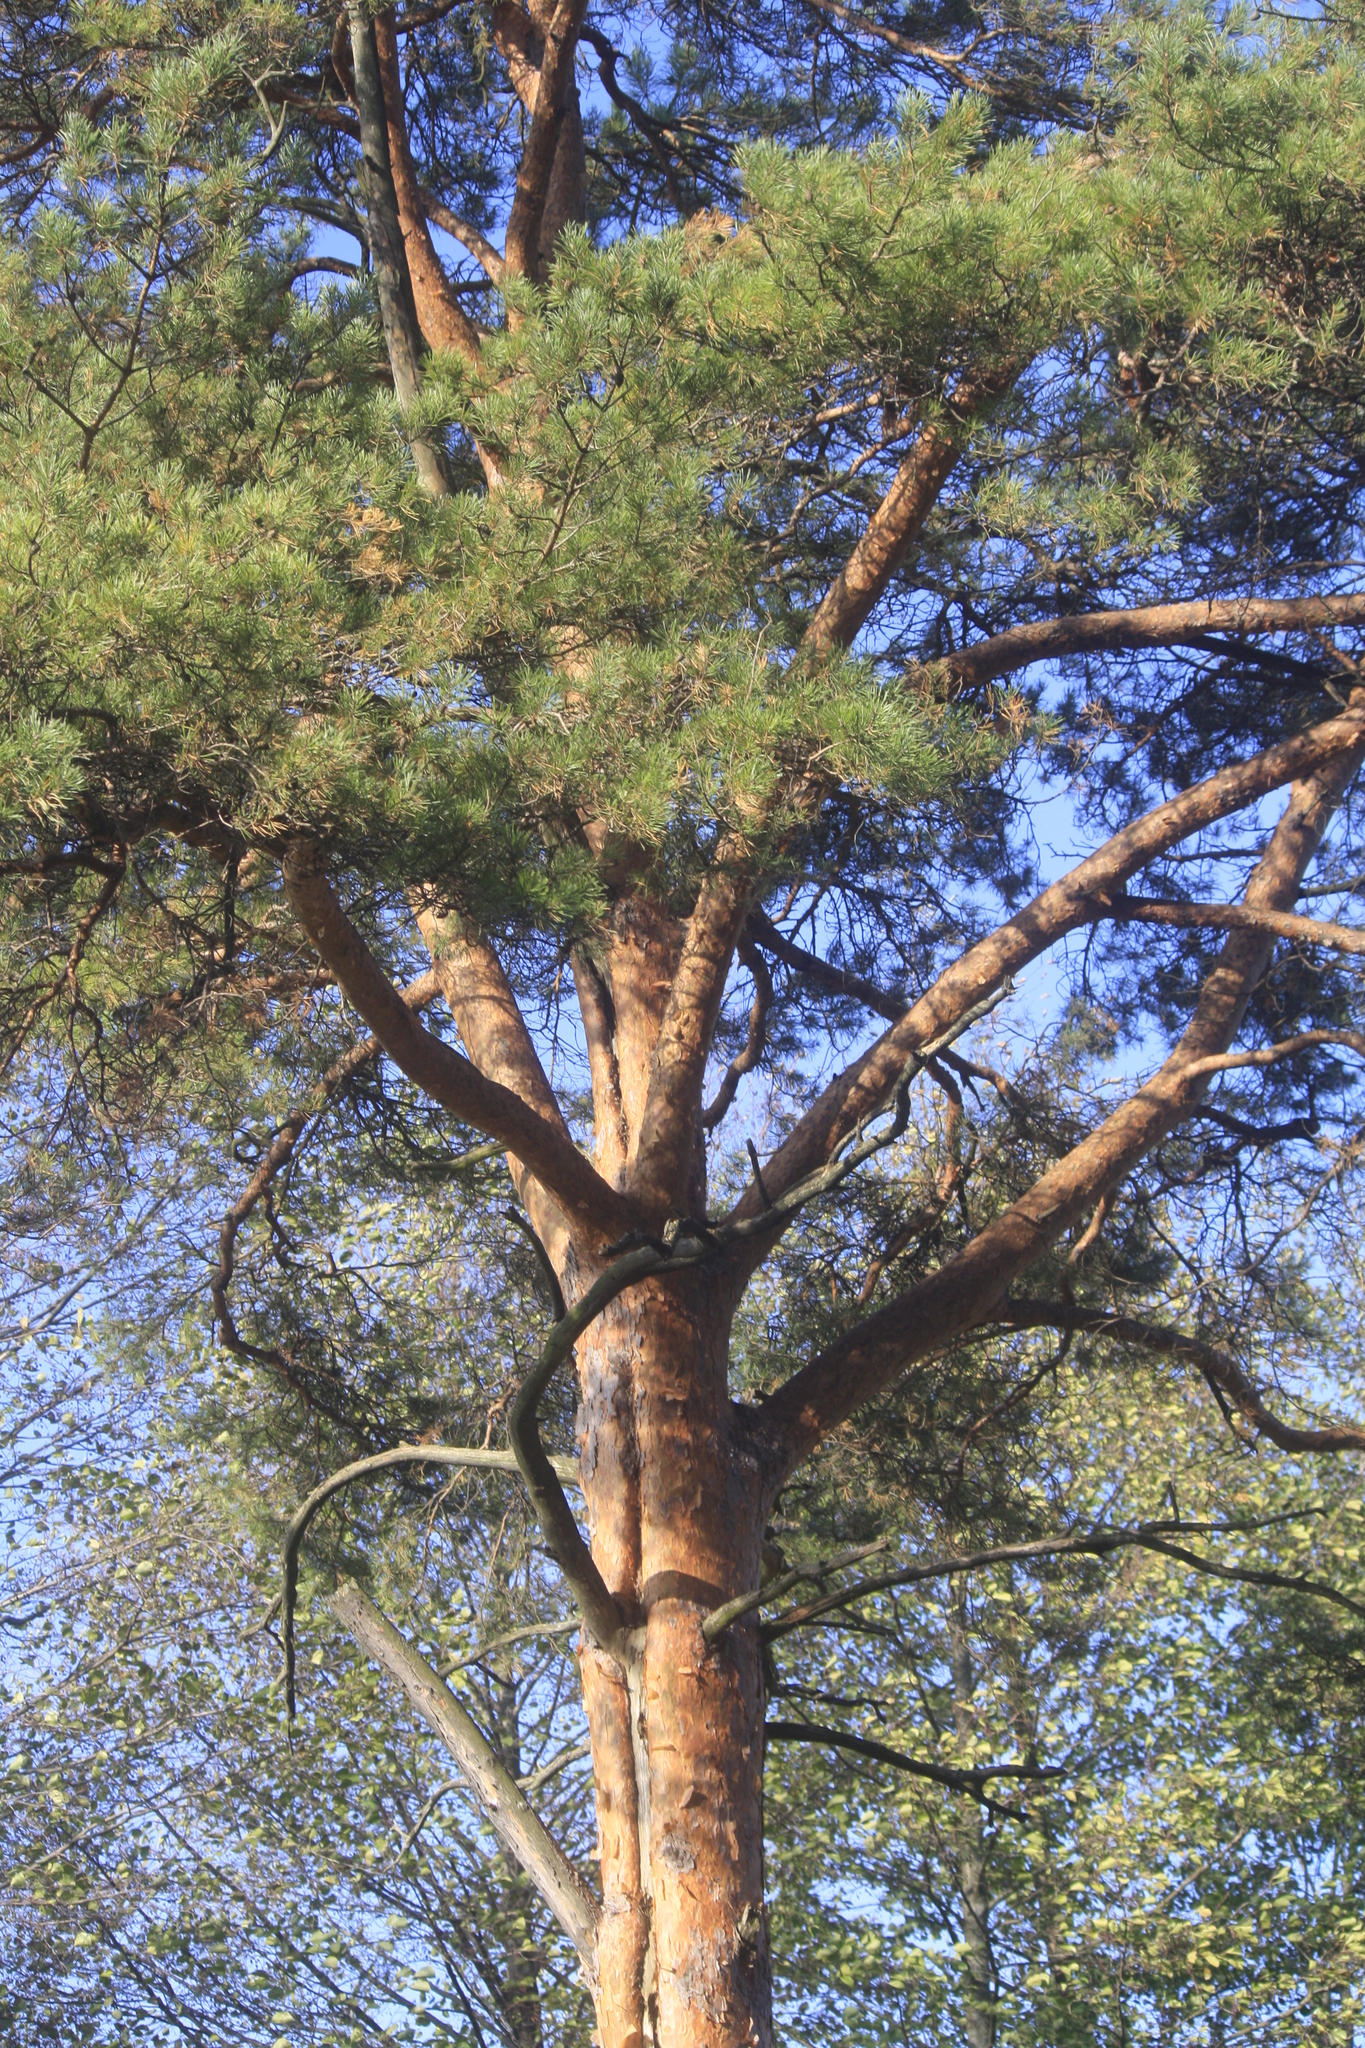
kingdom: Plantae
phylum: Tracheophyta
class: Pinopsida
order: Pinales
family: Pinaceae
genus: Pinus
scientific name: Pinus sylvestris
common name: Scots pine
